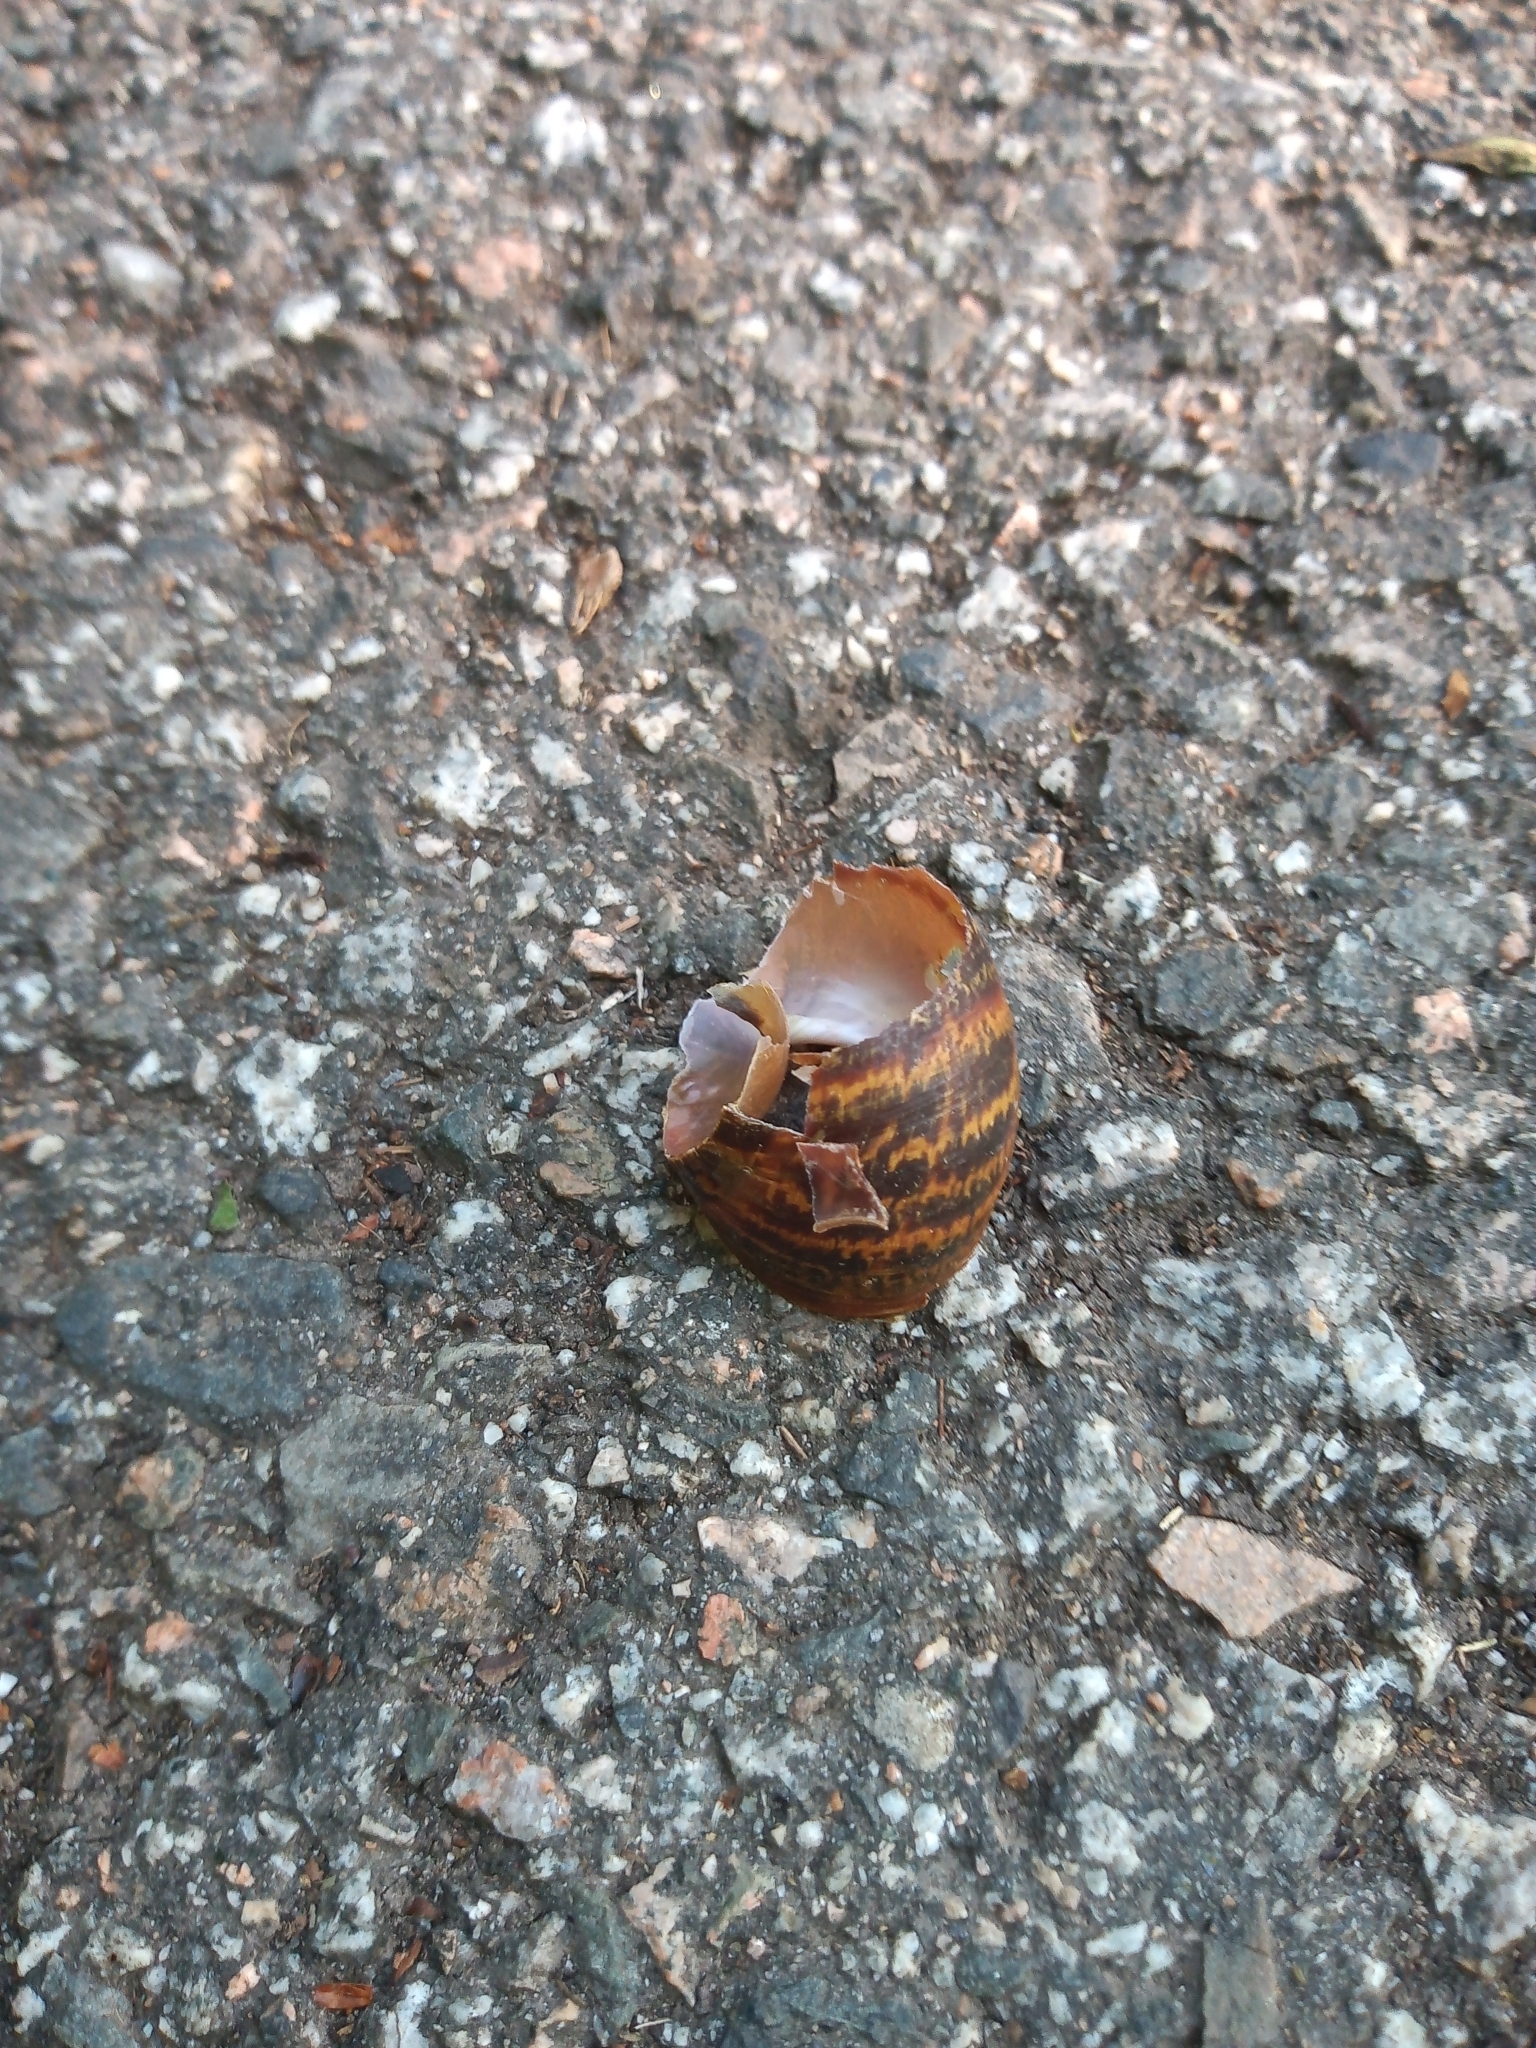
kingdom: Animalia
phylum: Mollusca
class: Gastropoda
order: Stylommatophora
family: Helicidae
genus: Cornu
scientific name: Cornu aspersum
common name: Brown garden snail
